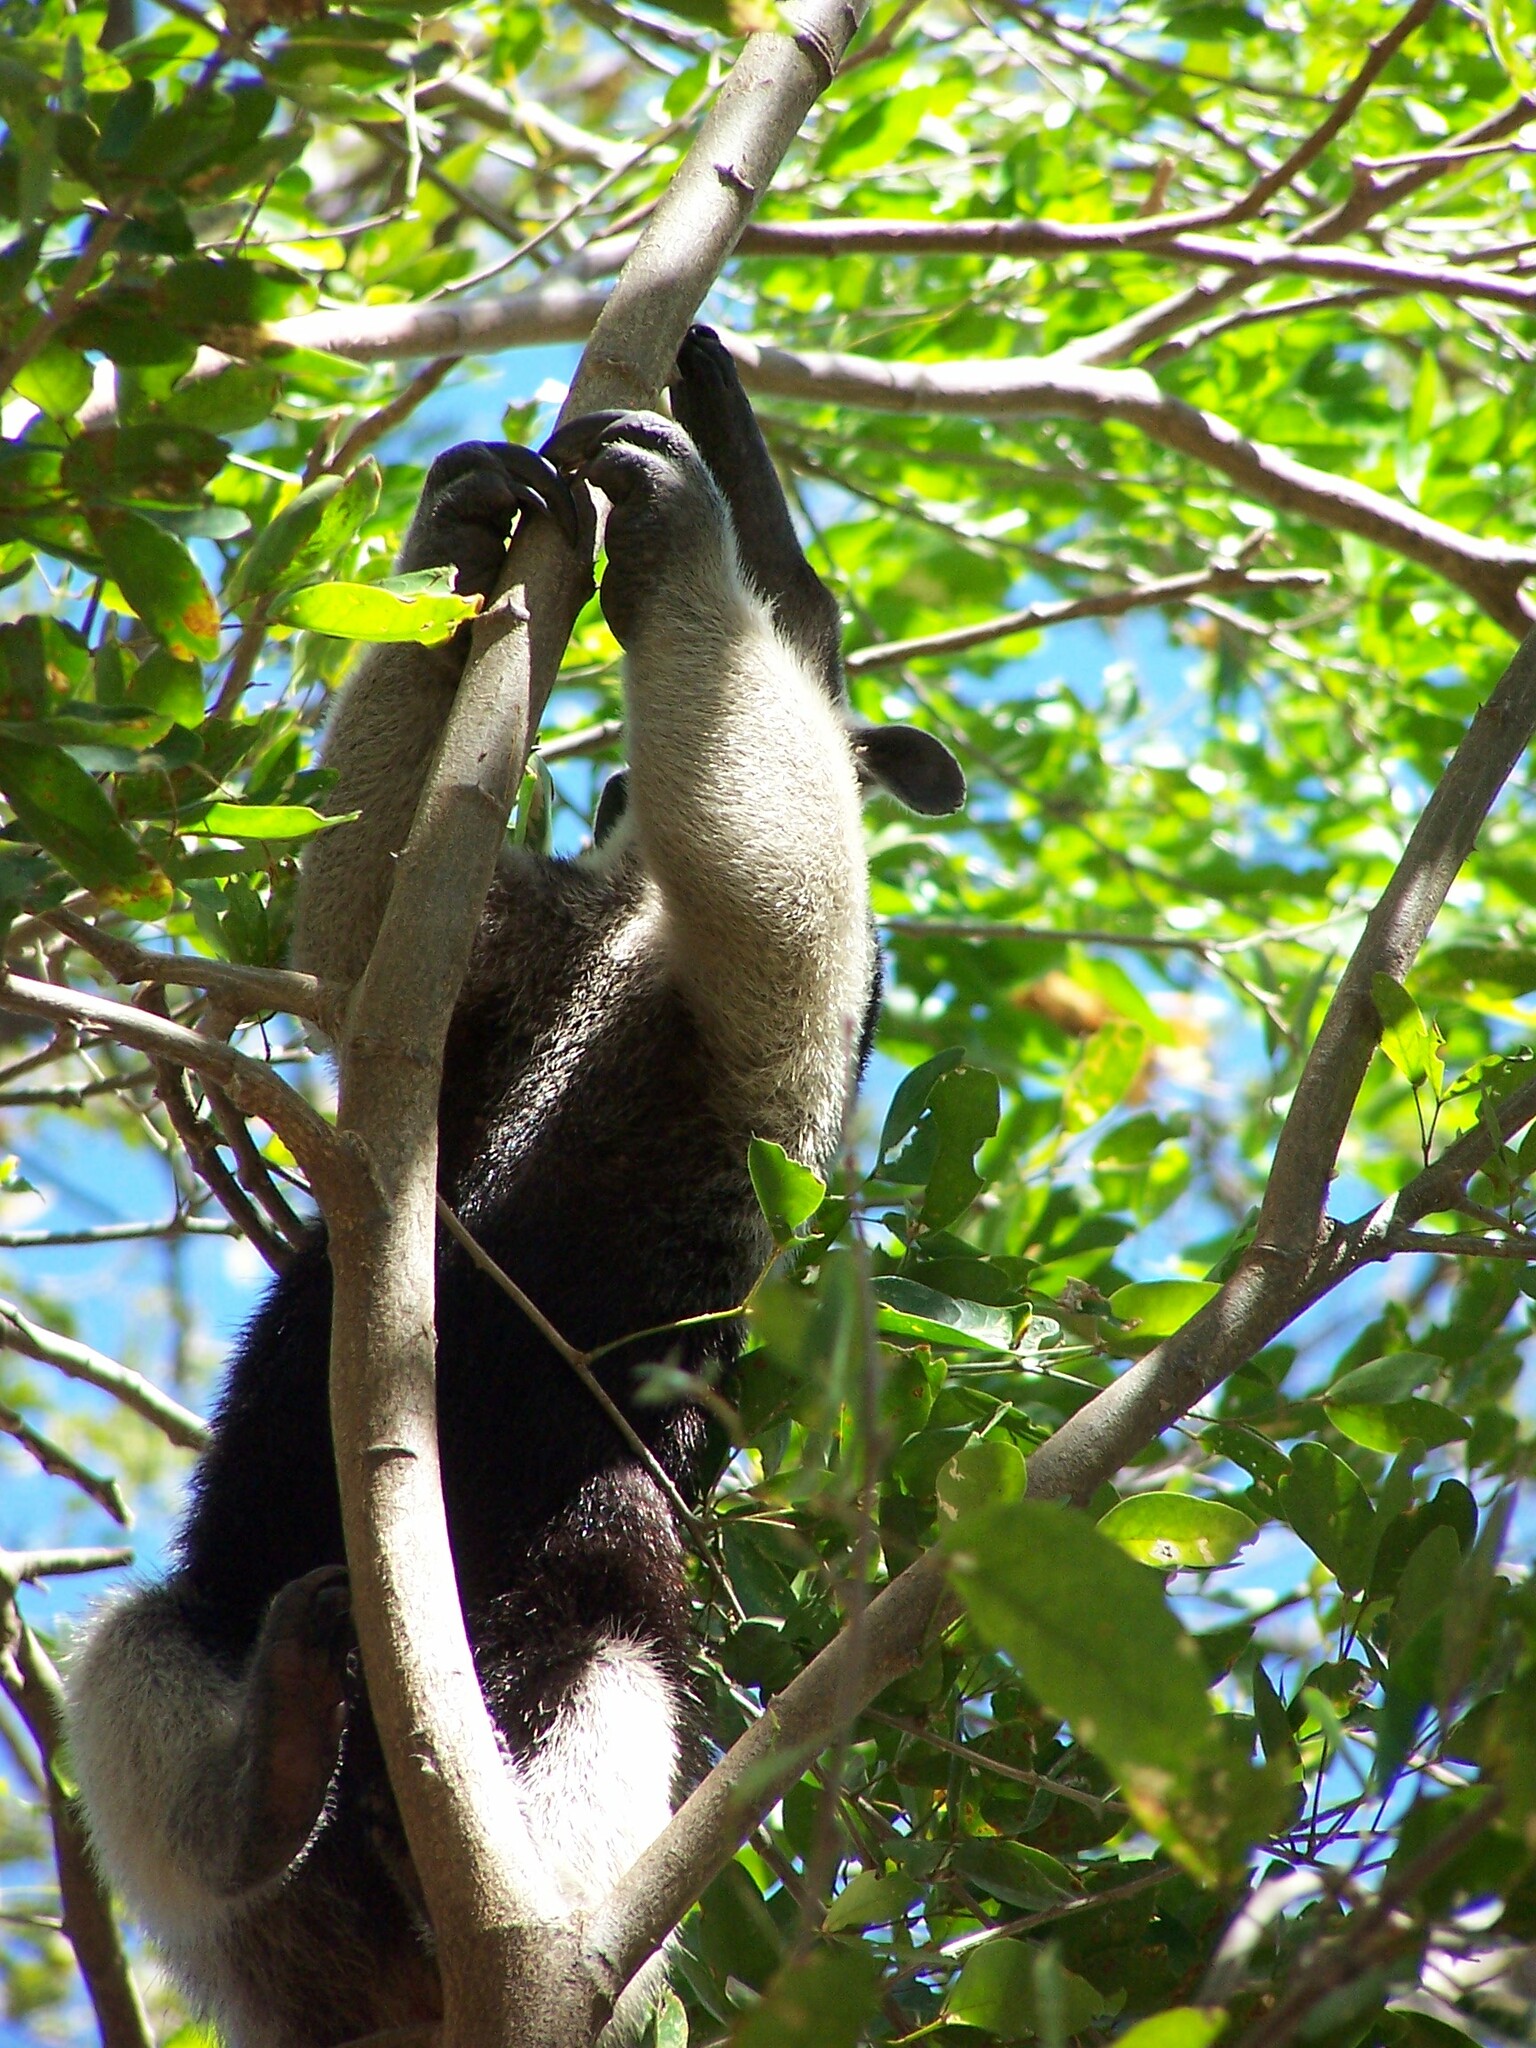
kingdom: Animalia
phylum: Chordata
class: Mammalia
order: Pilosa
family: Myrmecophagidae
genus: Tamandua
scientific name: Tamandua mexicana
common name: Northern tamandua
